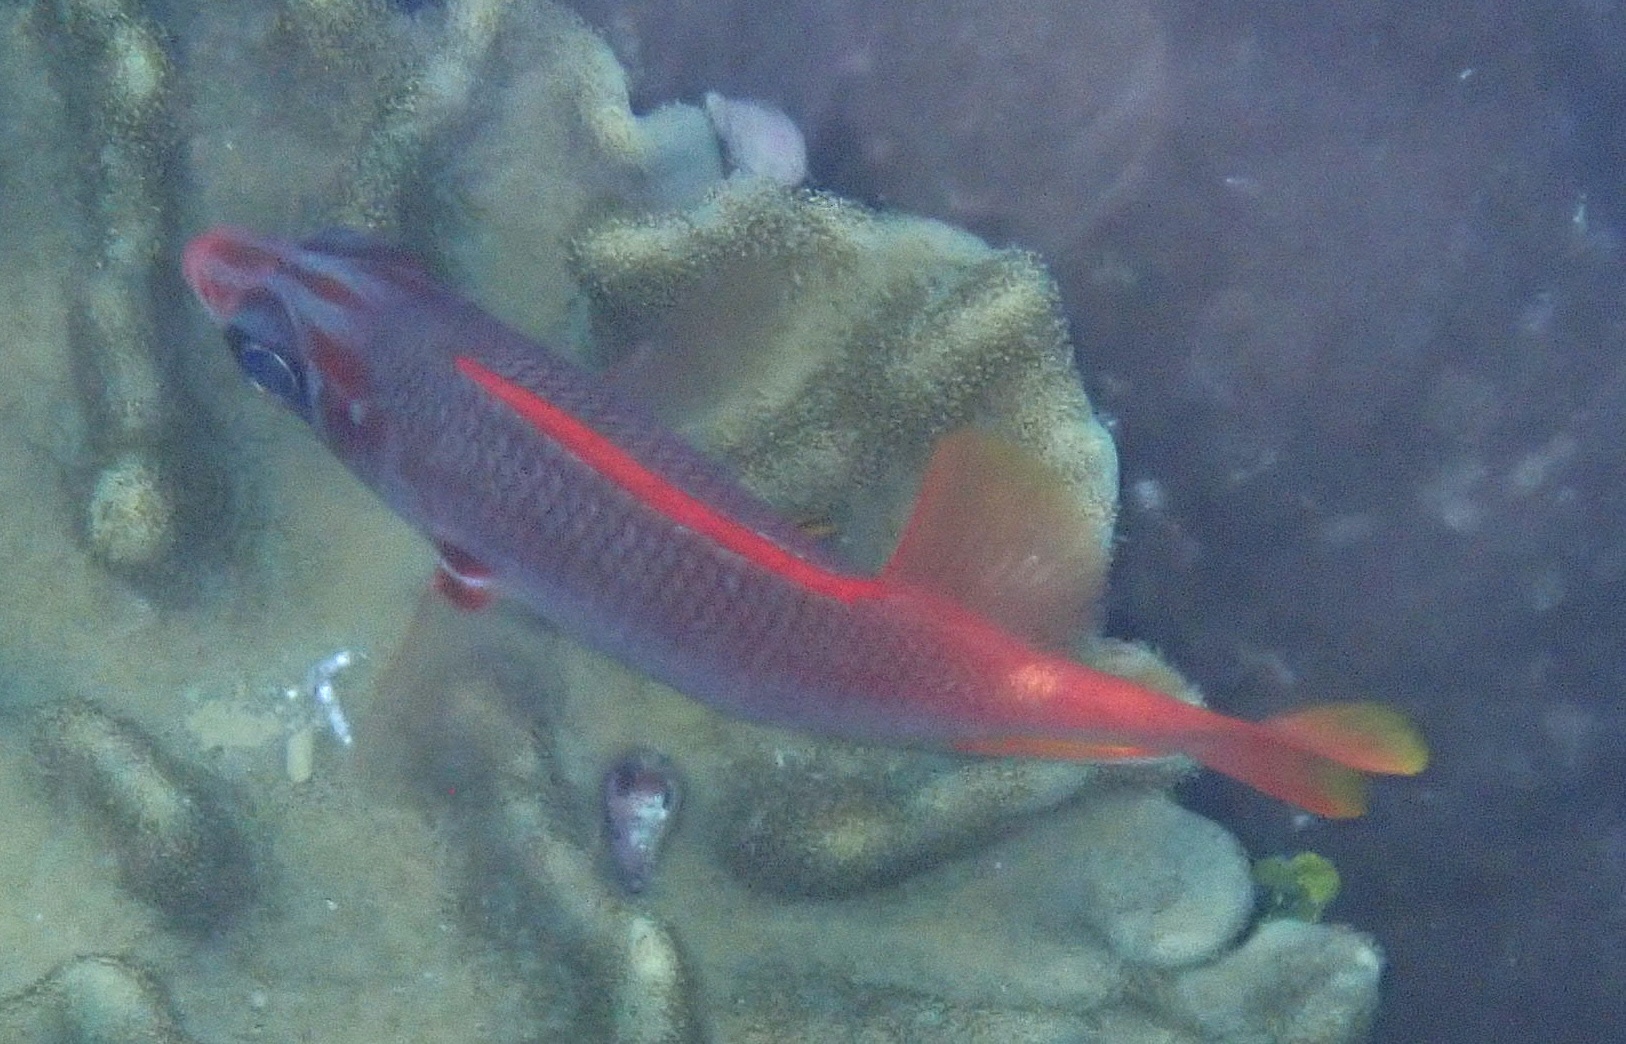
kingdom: Animalia
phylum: Chordata
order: Beryciformes
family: Holocentridae
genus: Sargocentron
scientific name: Sargocentron spiniferum
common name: Giant squirrelfish
